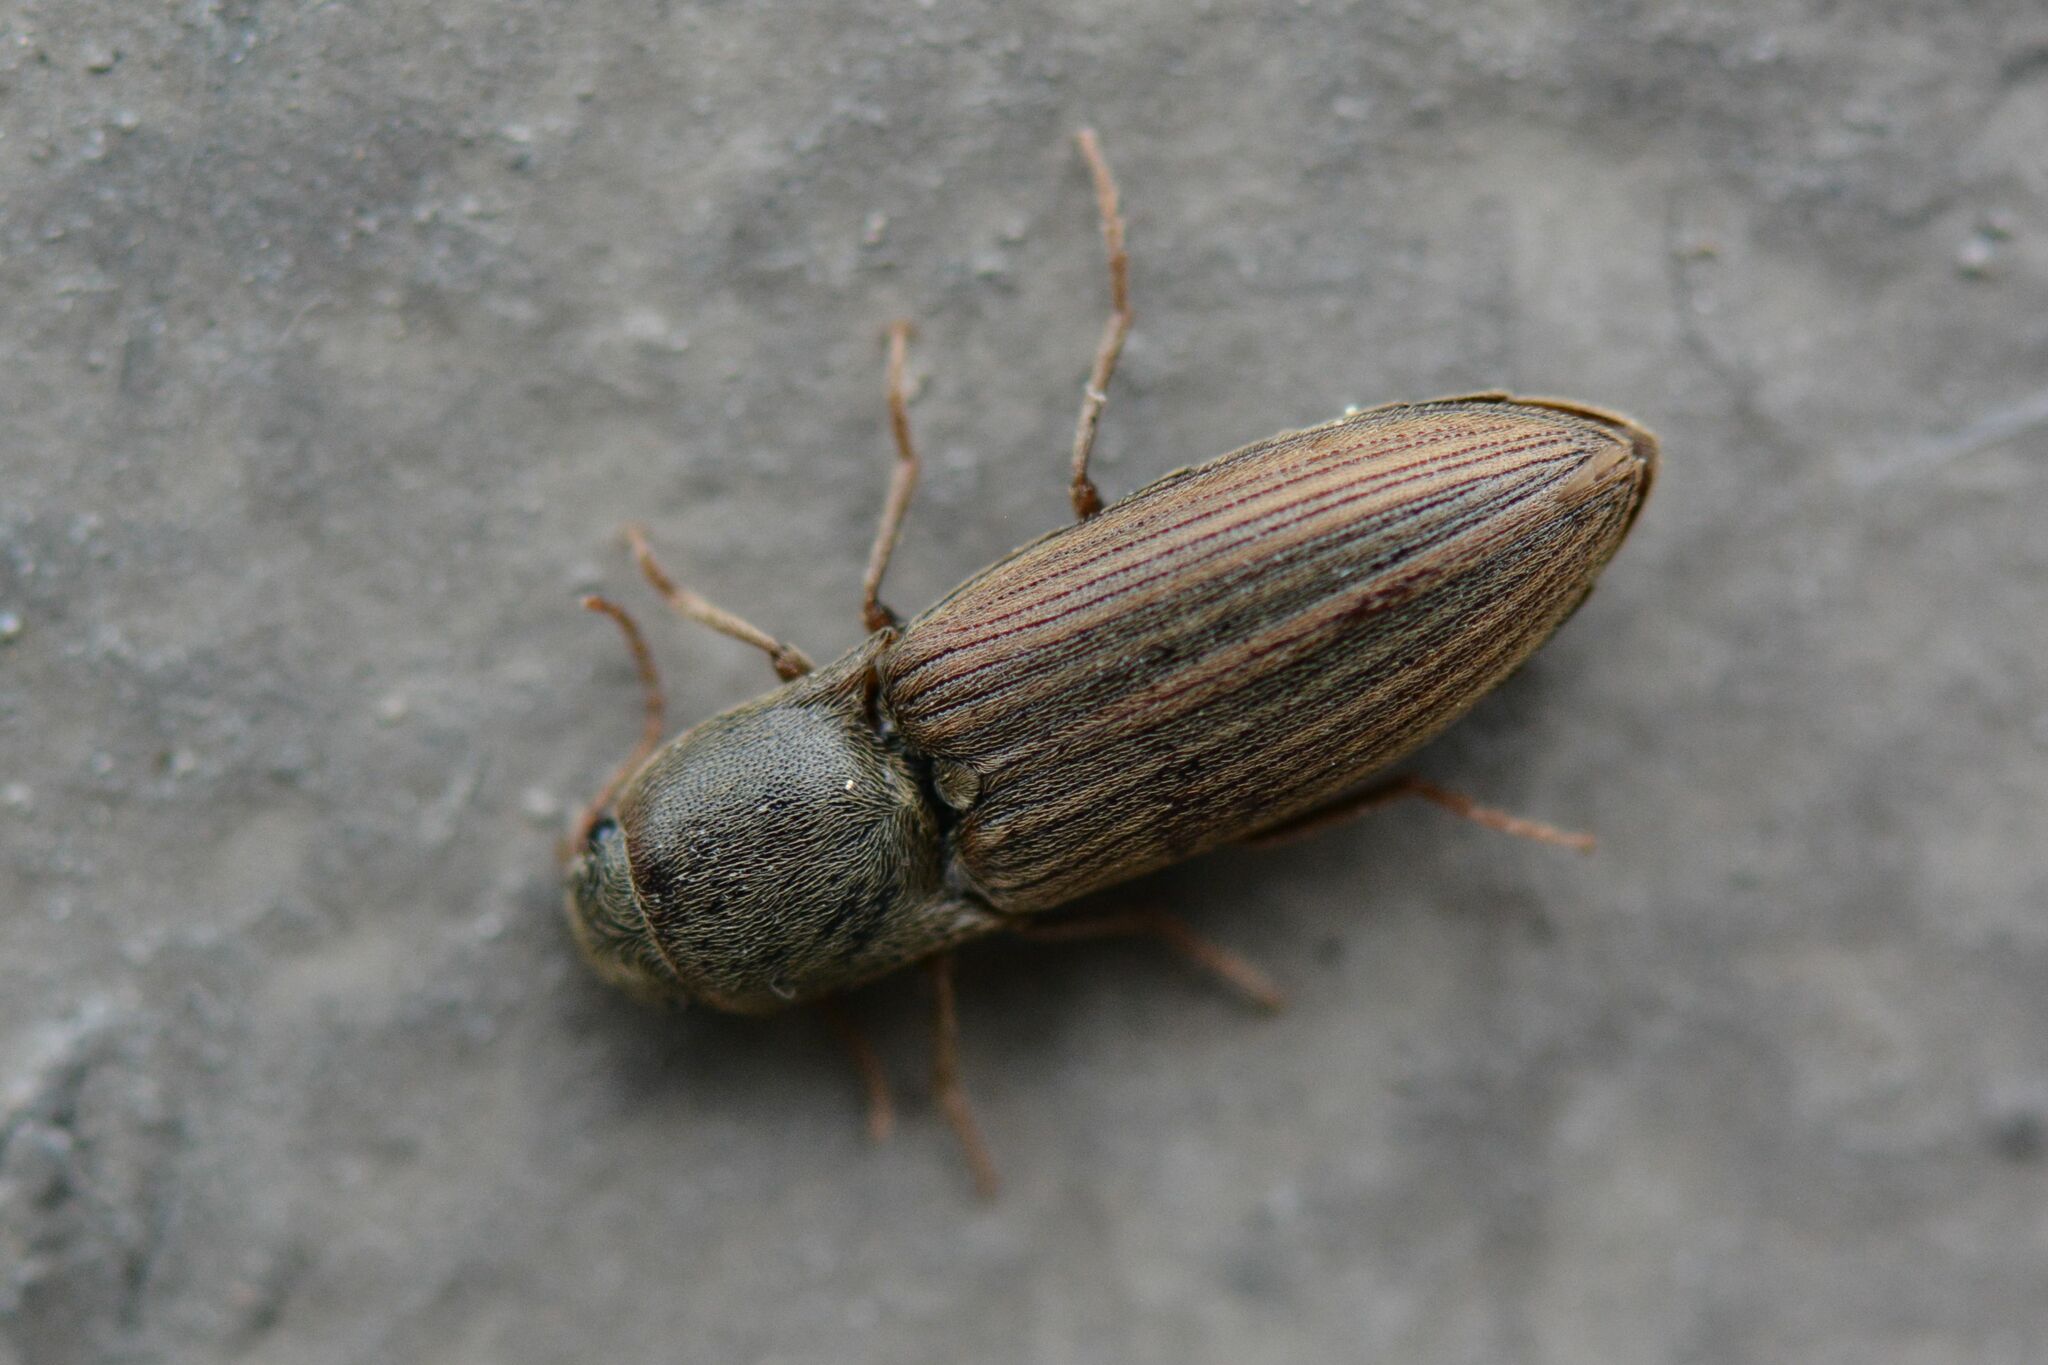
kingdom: Animalia
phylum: Arthropoda
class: Insecta
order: Coleoptera
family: Elateridae
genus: Agriotes
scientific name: Agriotes lineatus
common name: Lined click beetle
